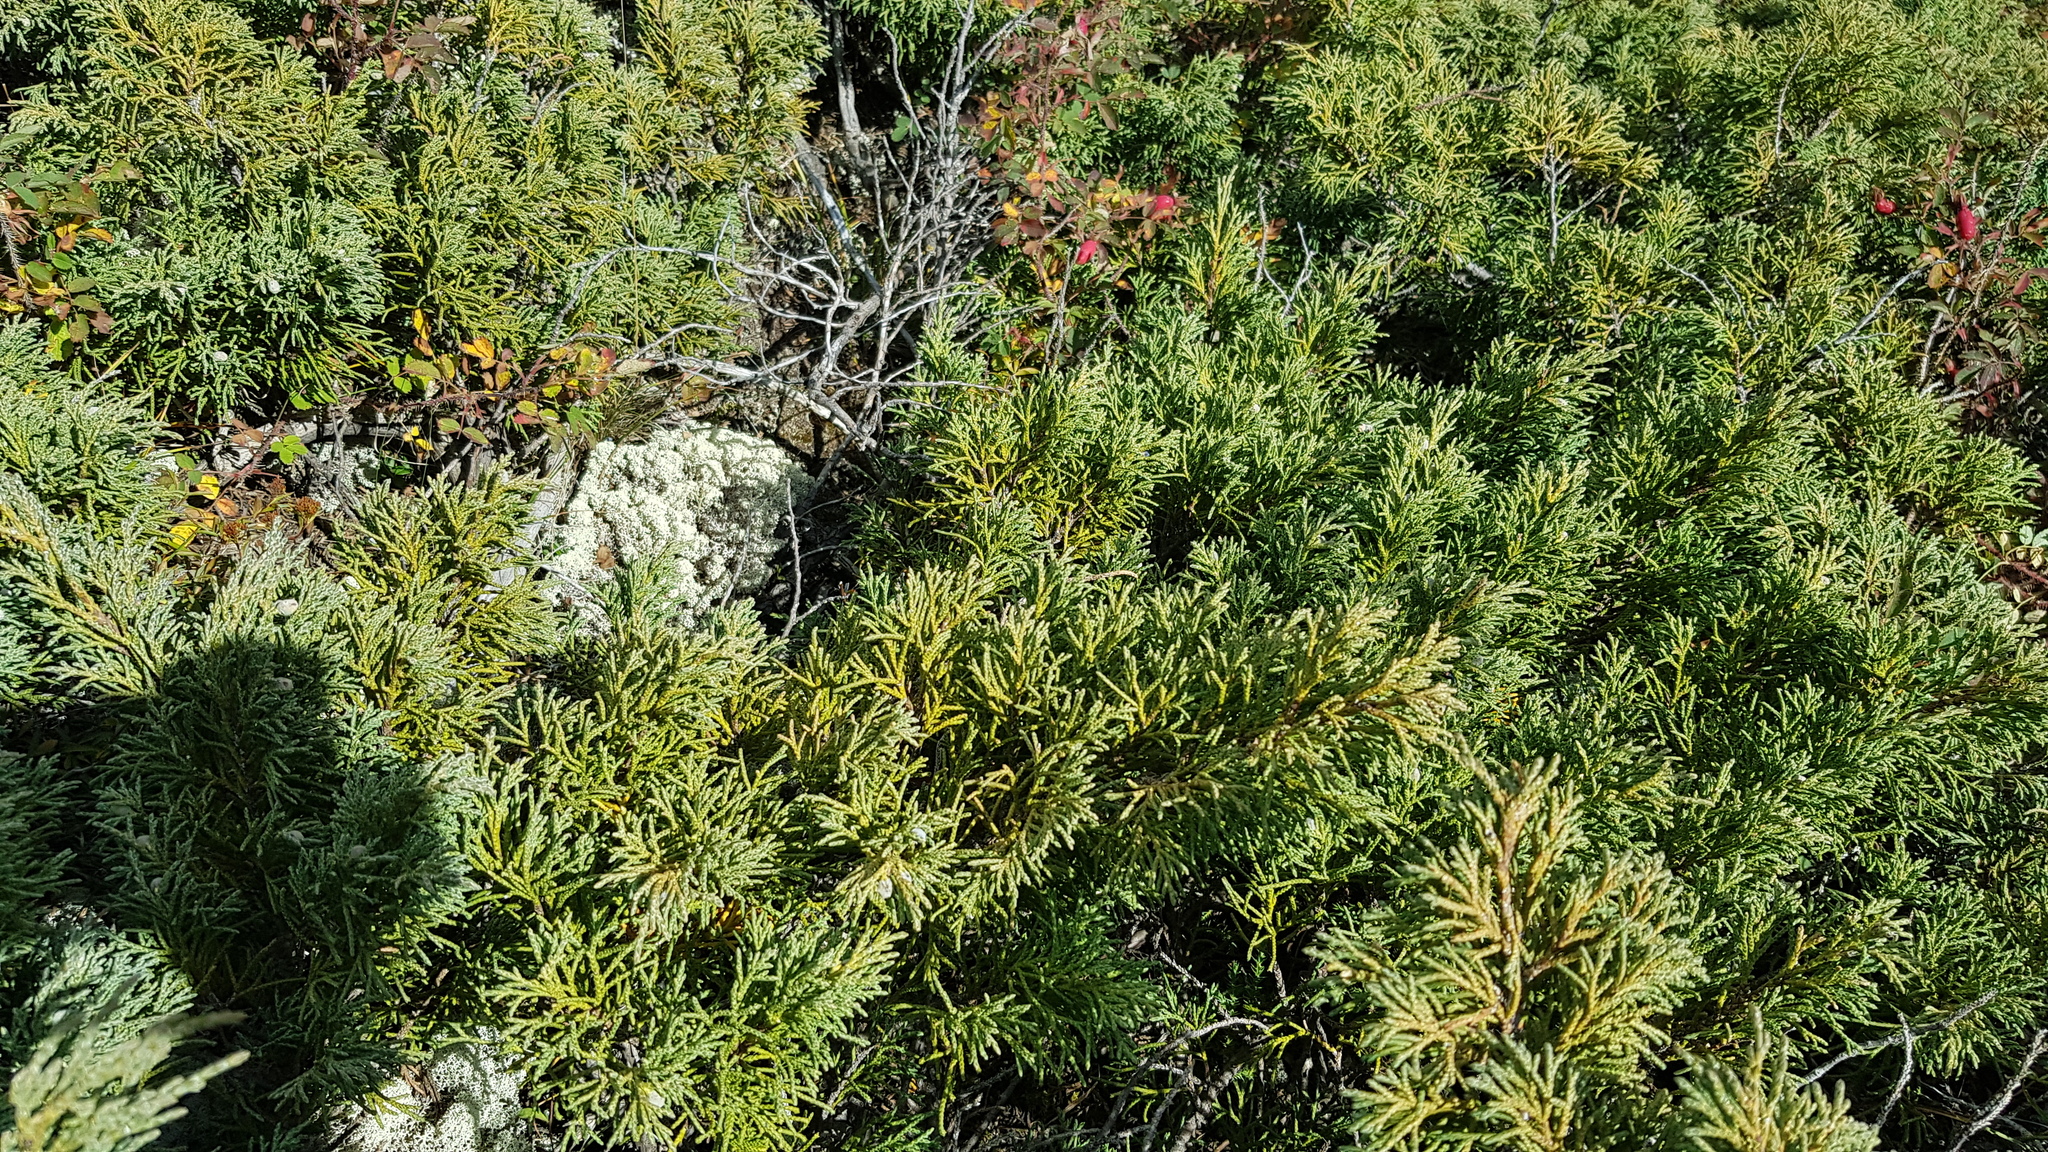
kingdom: Plantae
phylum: Tracheophyta
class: Pinopsida
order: Pinales
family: Cupressaceae
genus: Juniperus
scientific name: Juniperus sabina
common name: Savin
